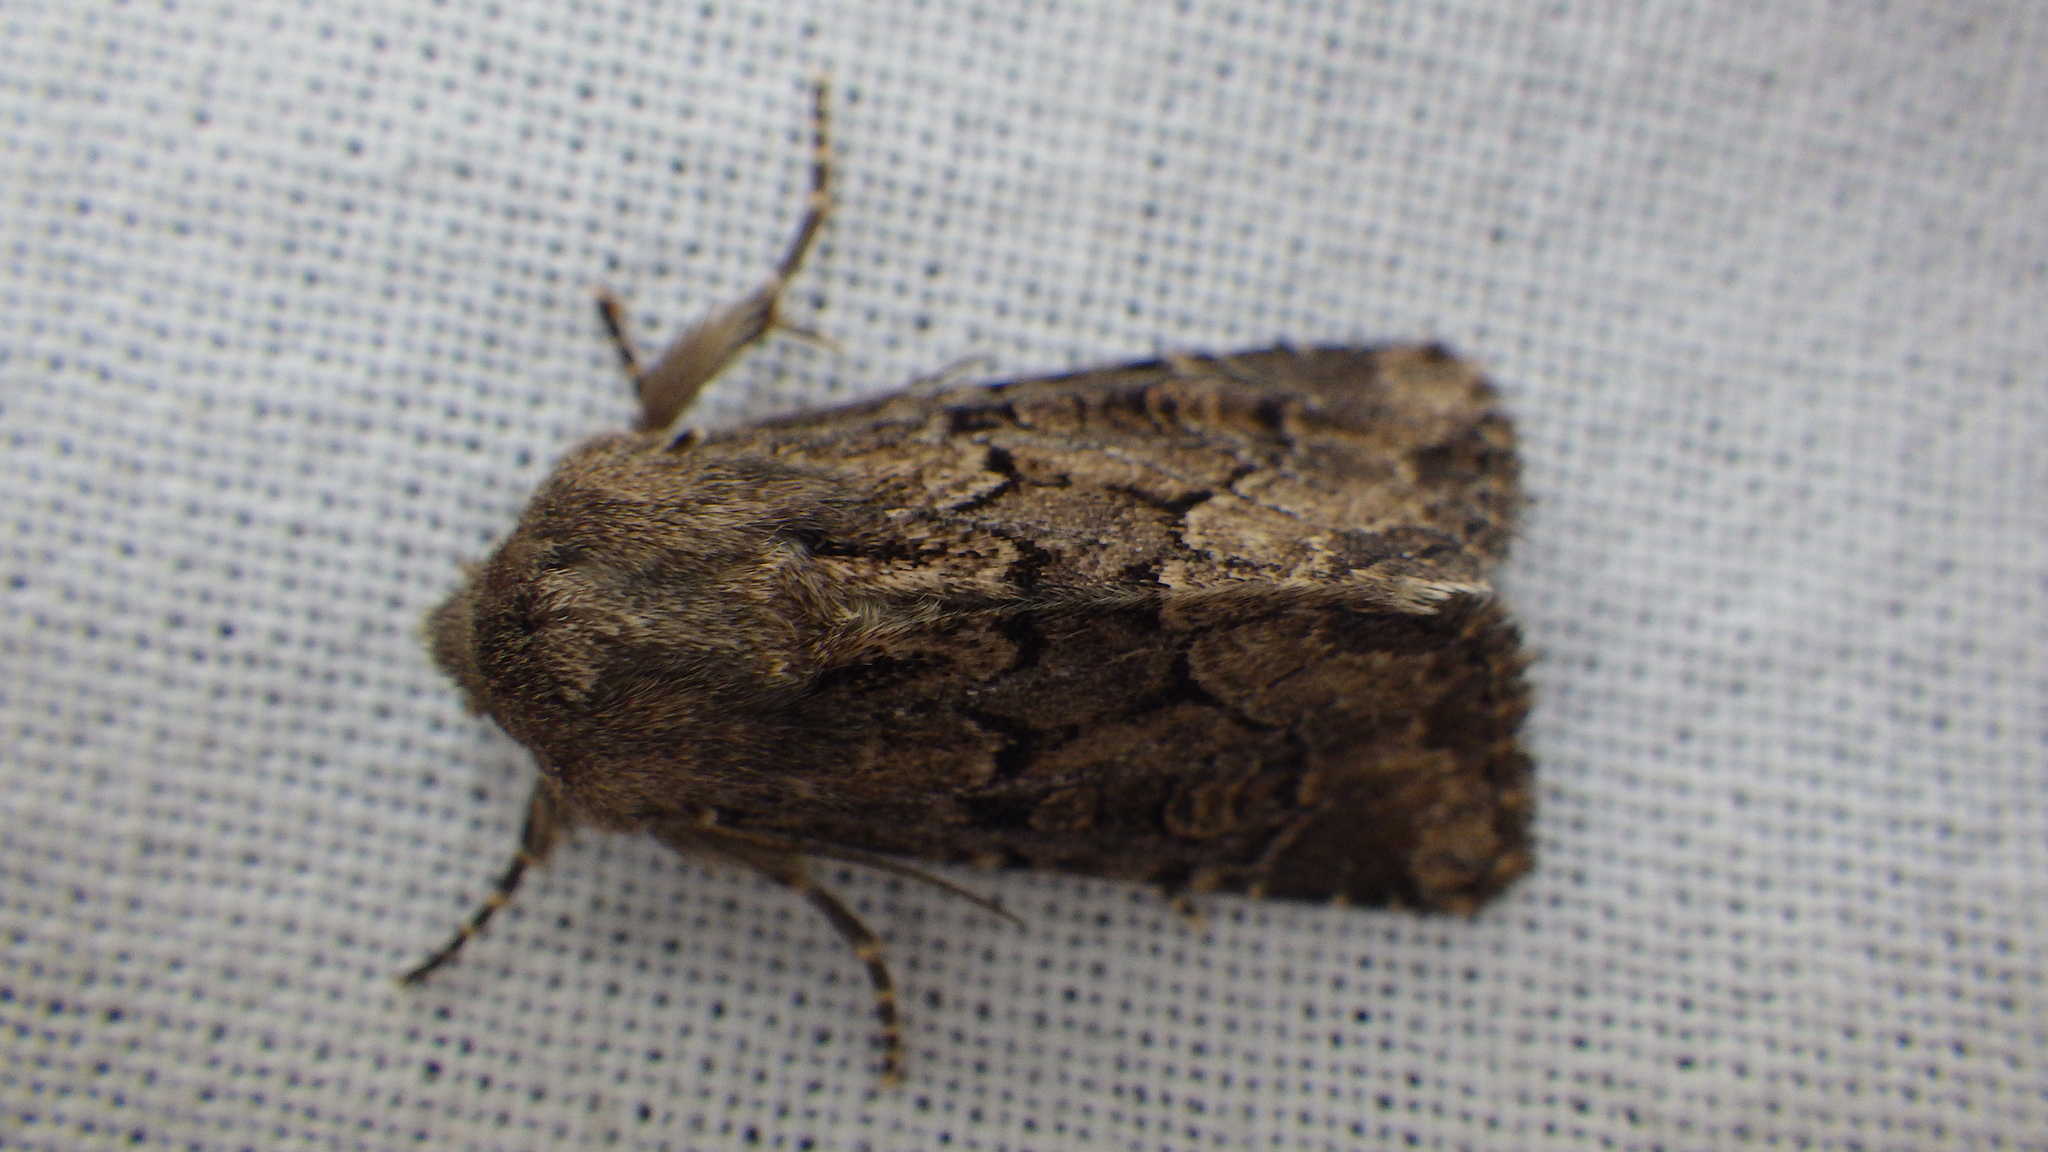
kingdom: Animalia
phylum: Arthropoda
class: Insecta
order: Lepidoptera
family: Noctuidae
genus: Luperina
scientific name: Luperina testacea
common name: Flounced rustic
